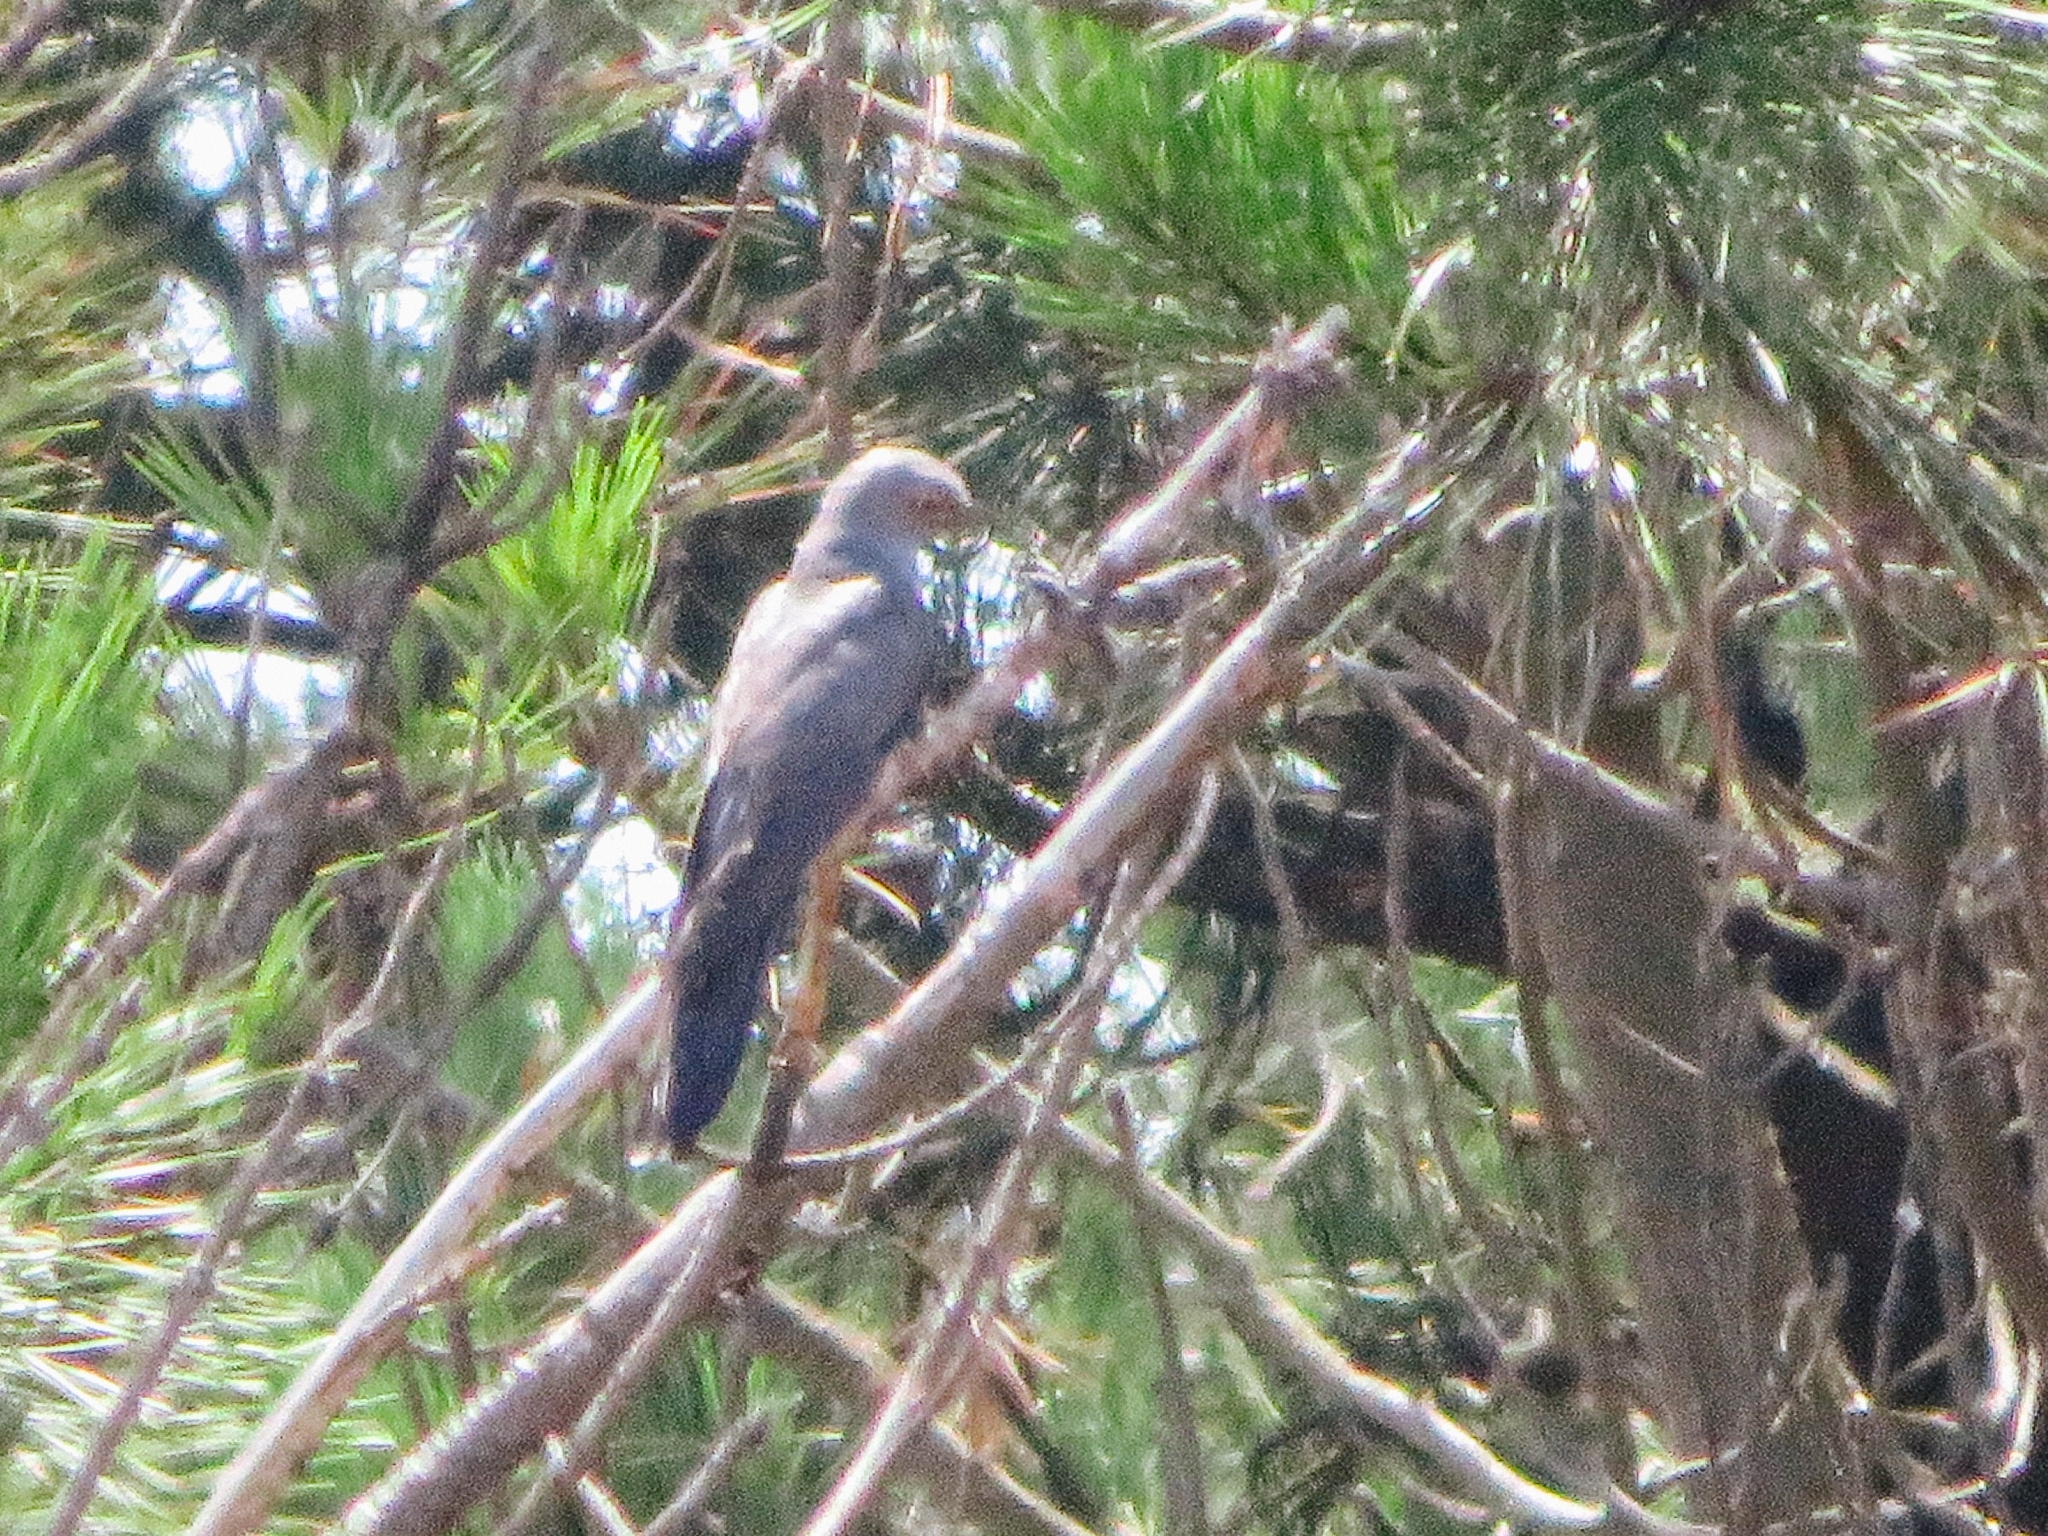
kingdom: Animalia
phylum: Chordata
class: Aves
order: Cuculiformes
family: Cuculidae
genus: Cuculus
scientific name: Cuculus canorus
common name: Common cuckoo
